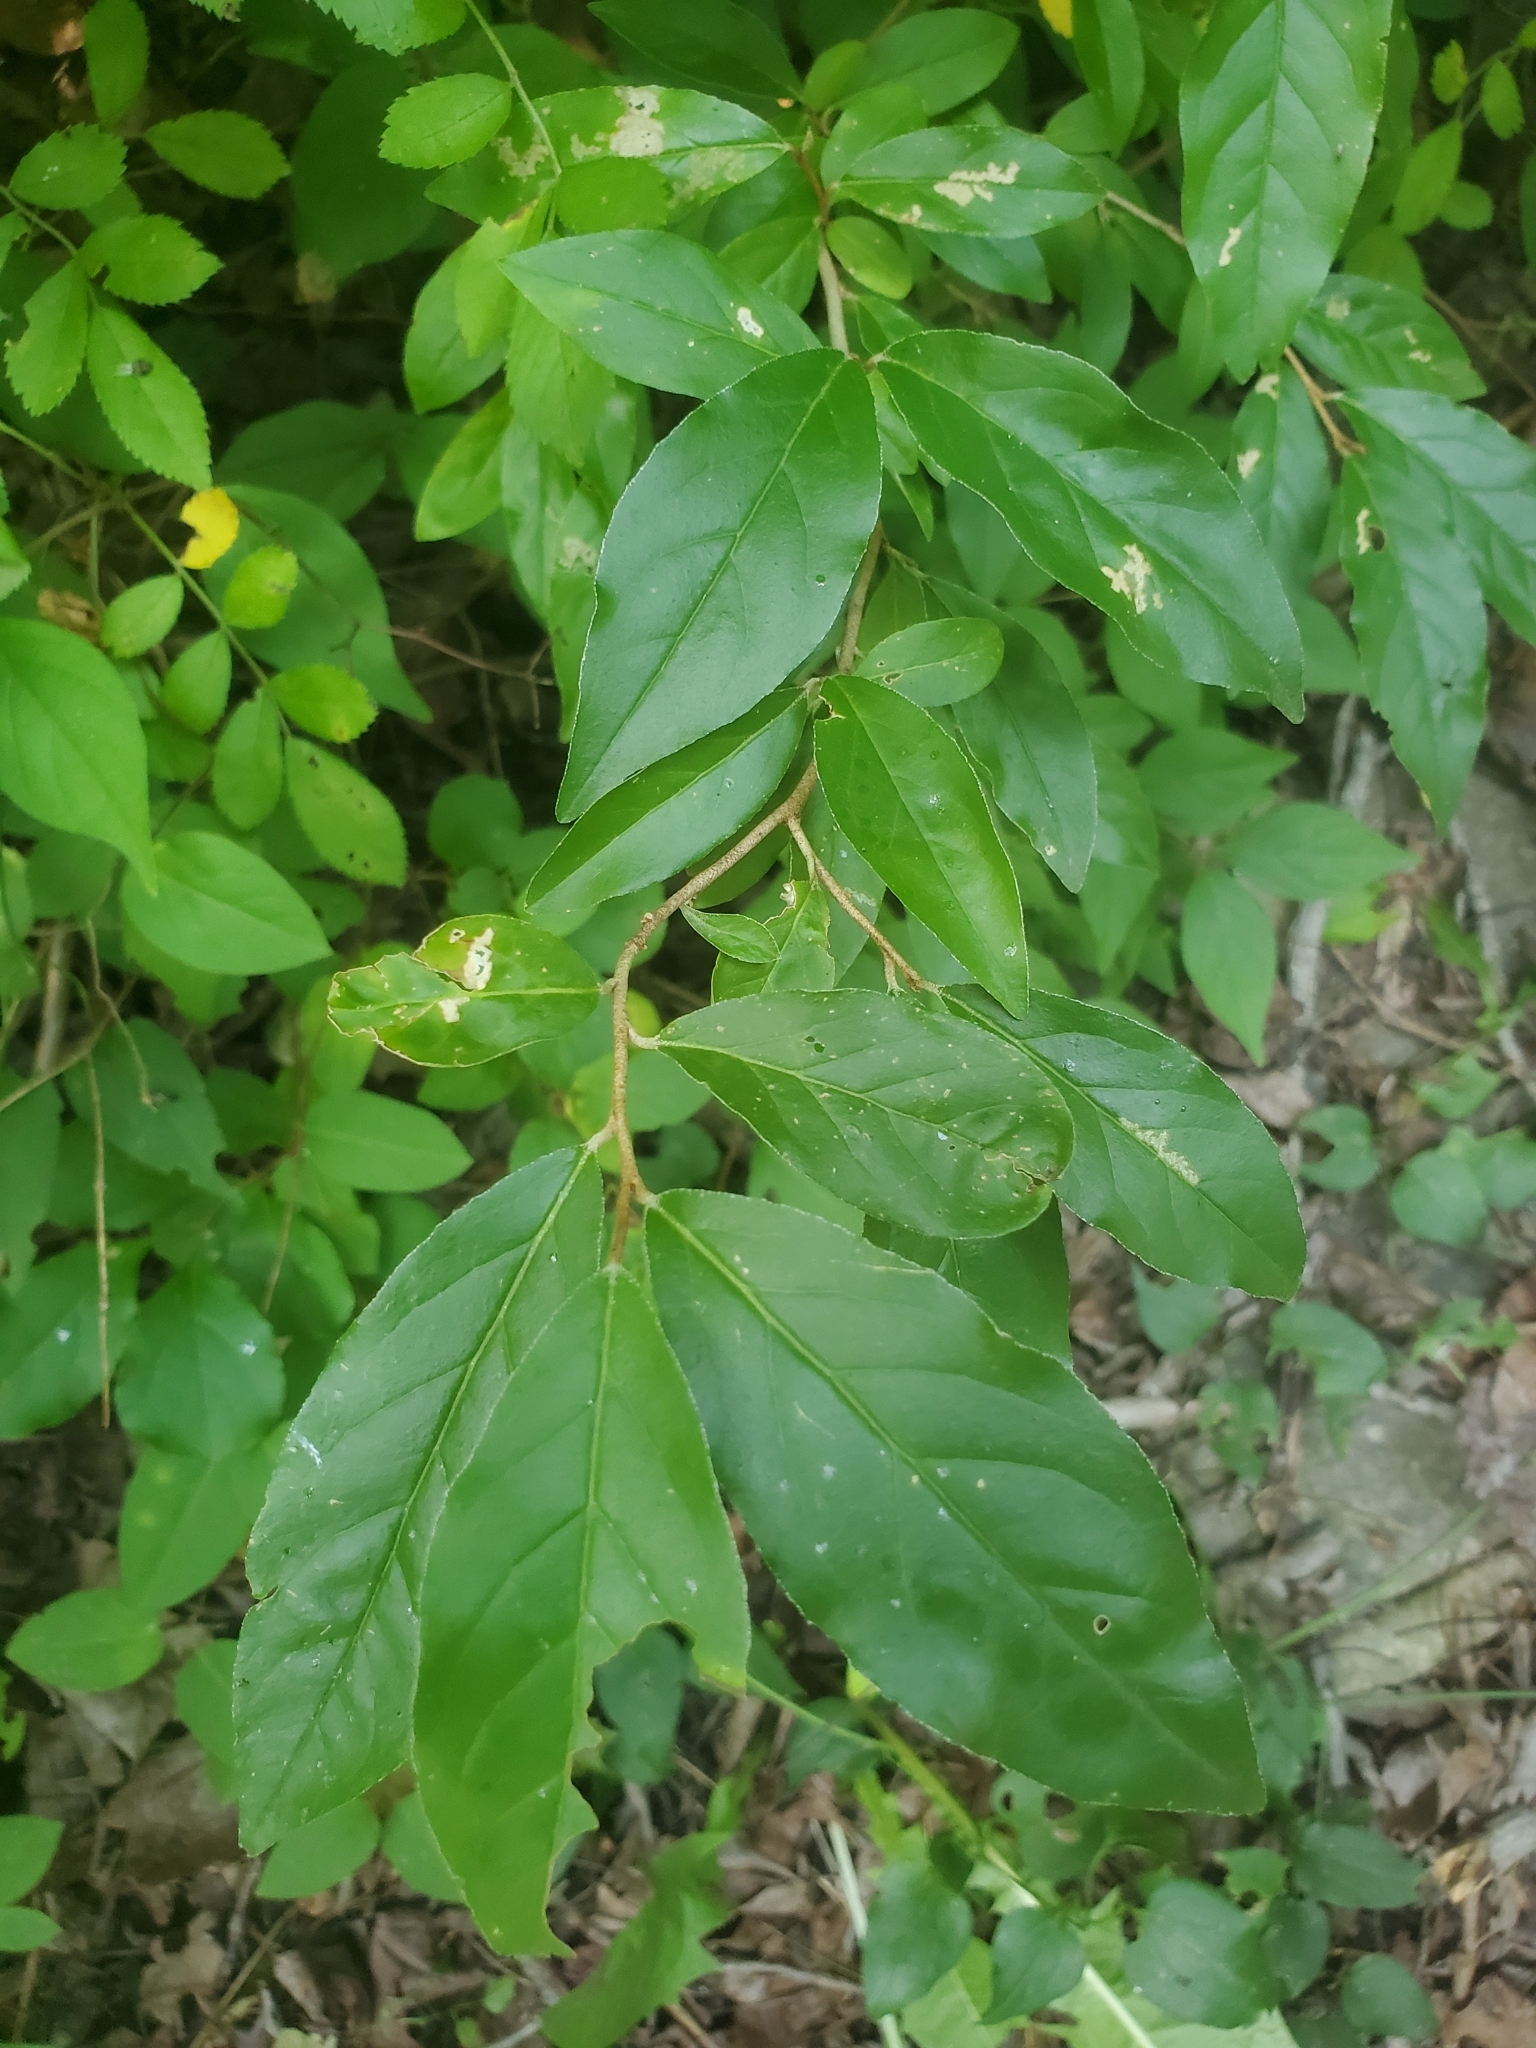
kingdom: Plantae
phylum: Tracheophyta
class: Magnoliopsida
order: Rosales
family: Elaeagnaceae
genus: Elaeagnus
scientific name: Elaeagnus umbellata
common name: Autumn olive
